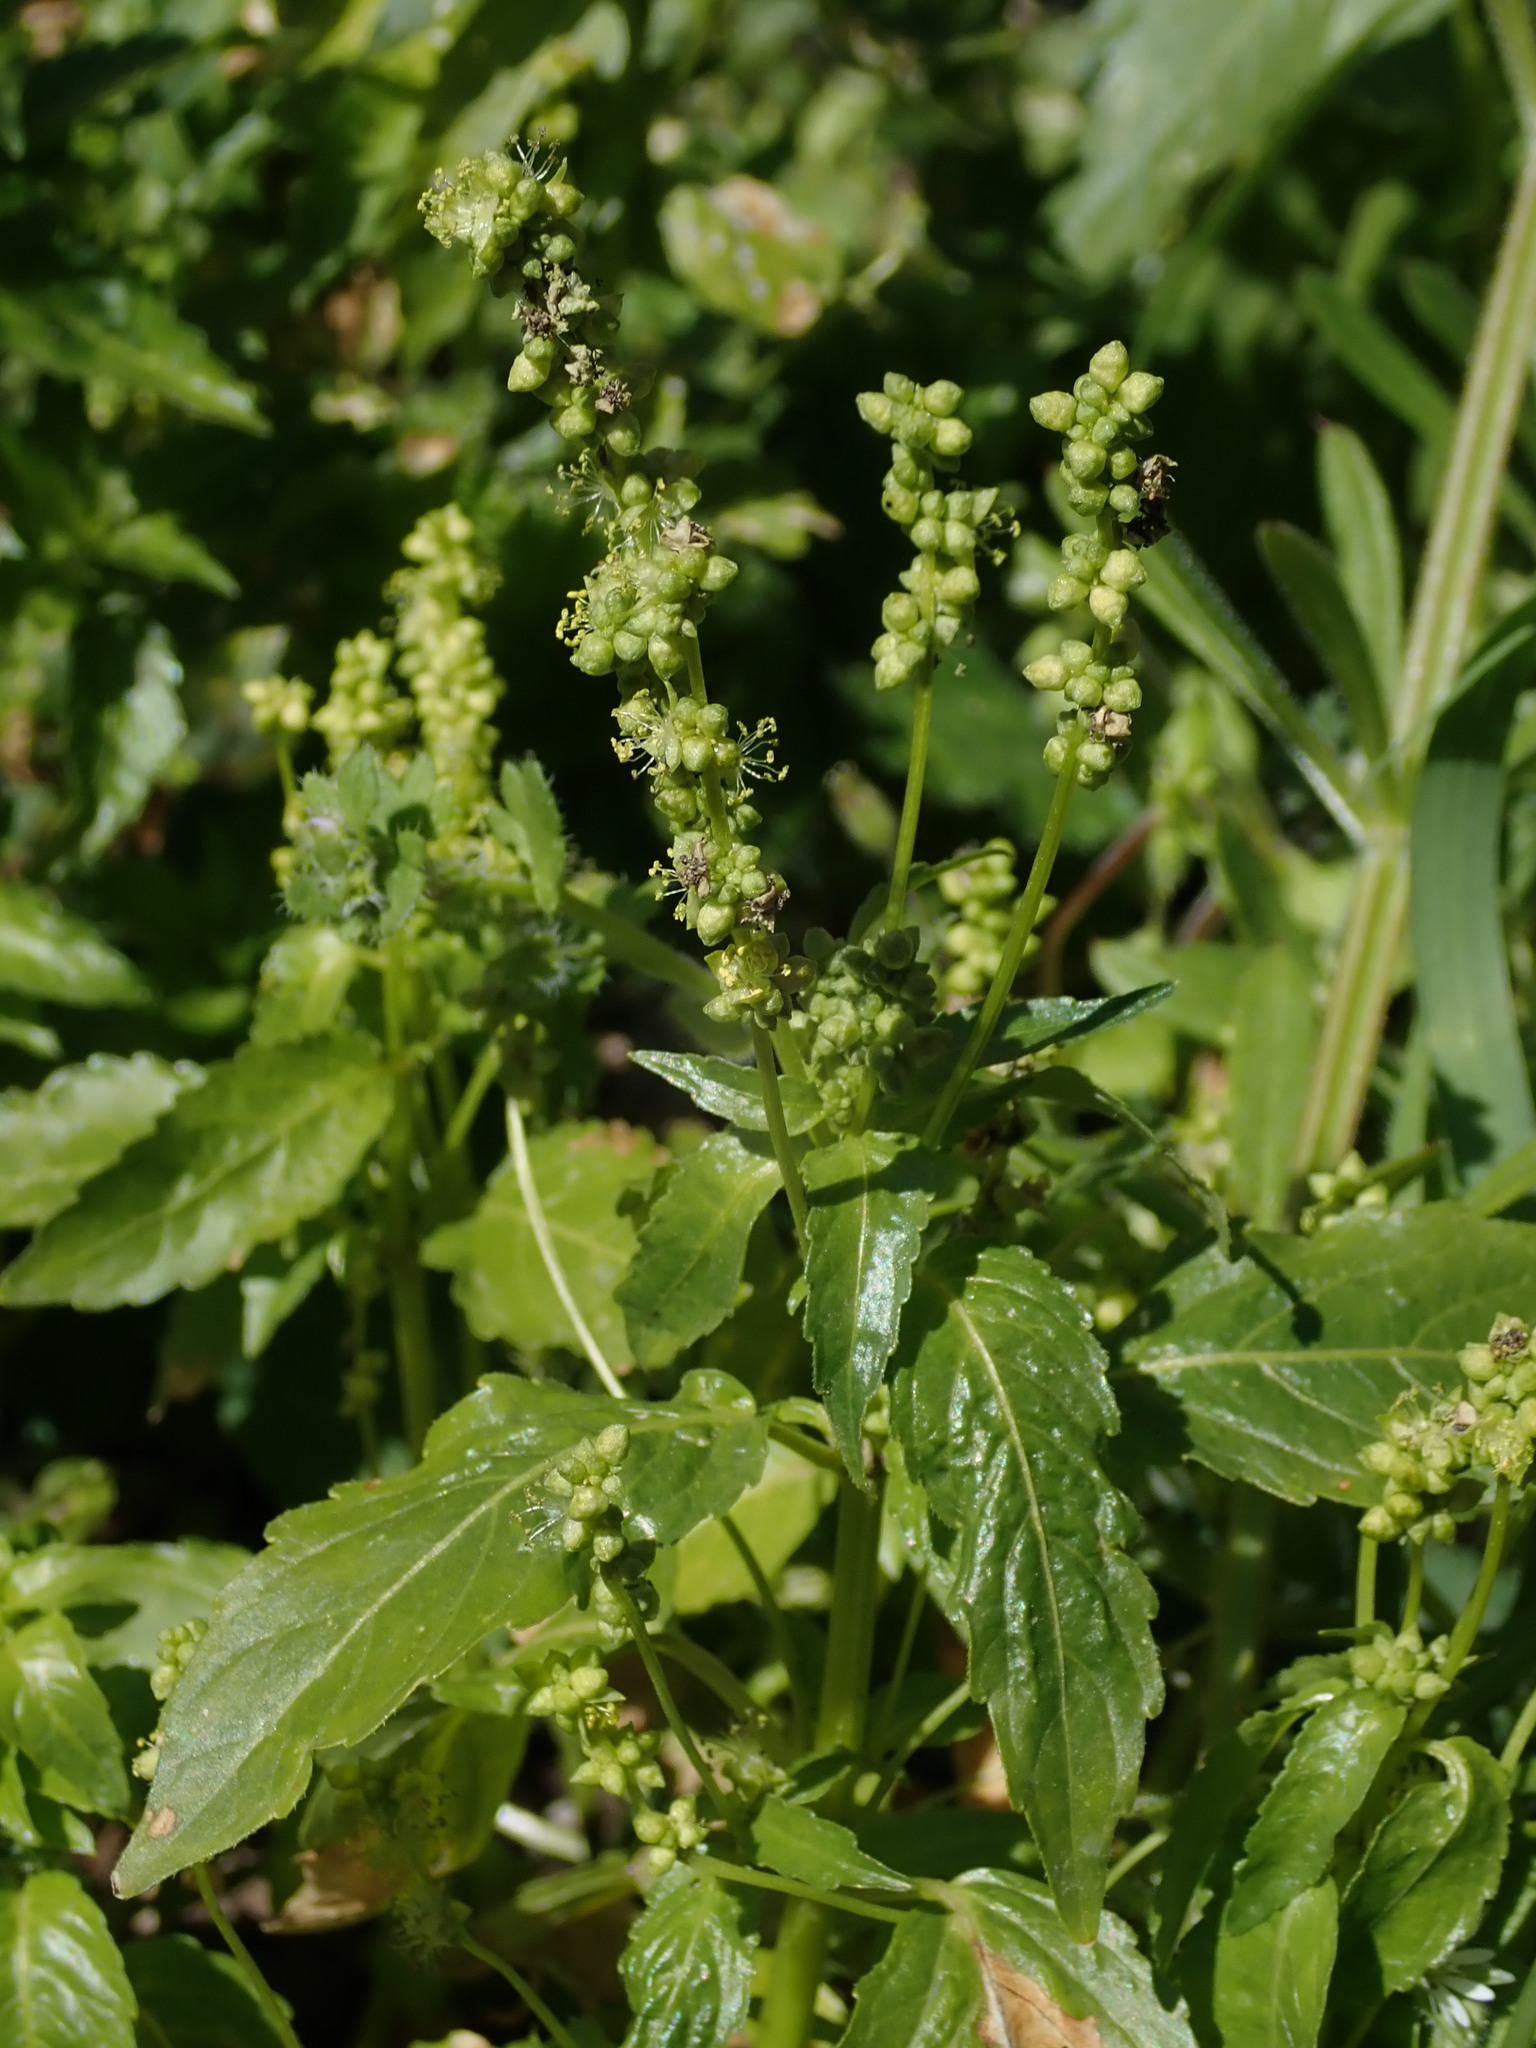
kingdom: Plantae
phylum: Tracheophyta
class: Magnoliopsida
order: Malpighiales
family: Euphorbiaceae
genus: Mercurialis
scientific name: Mercurialis annua
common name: Annual mercury
